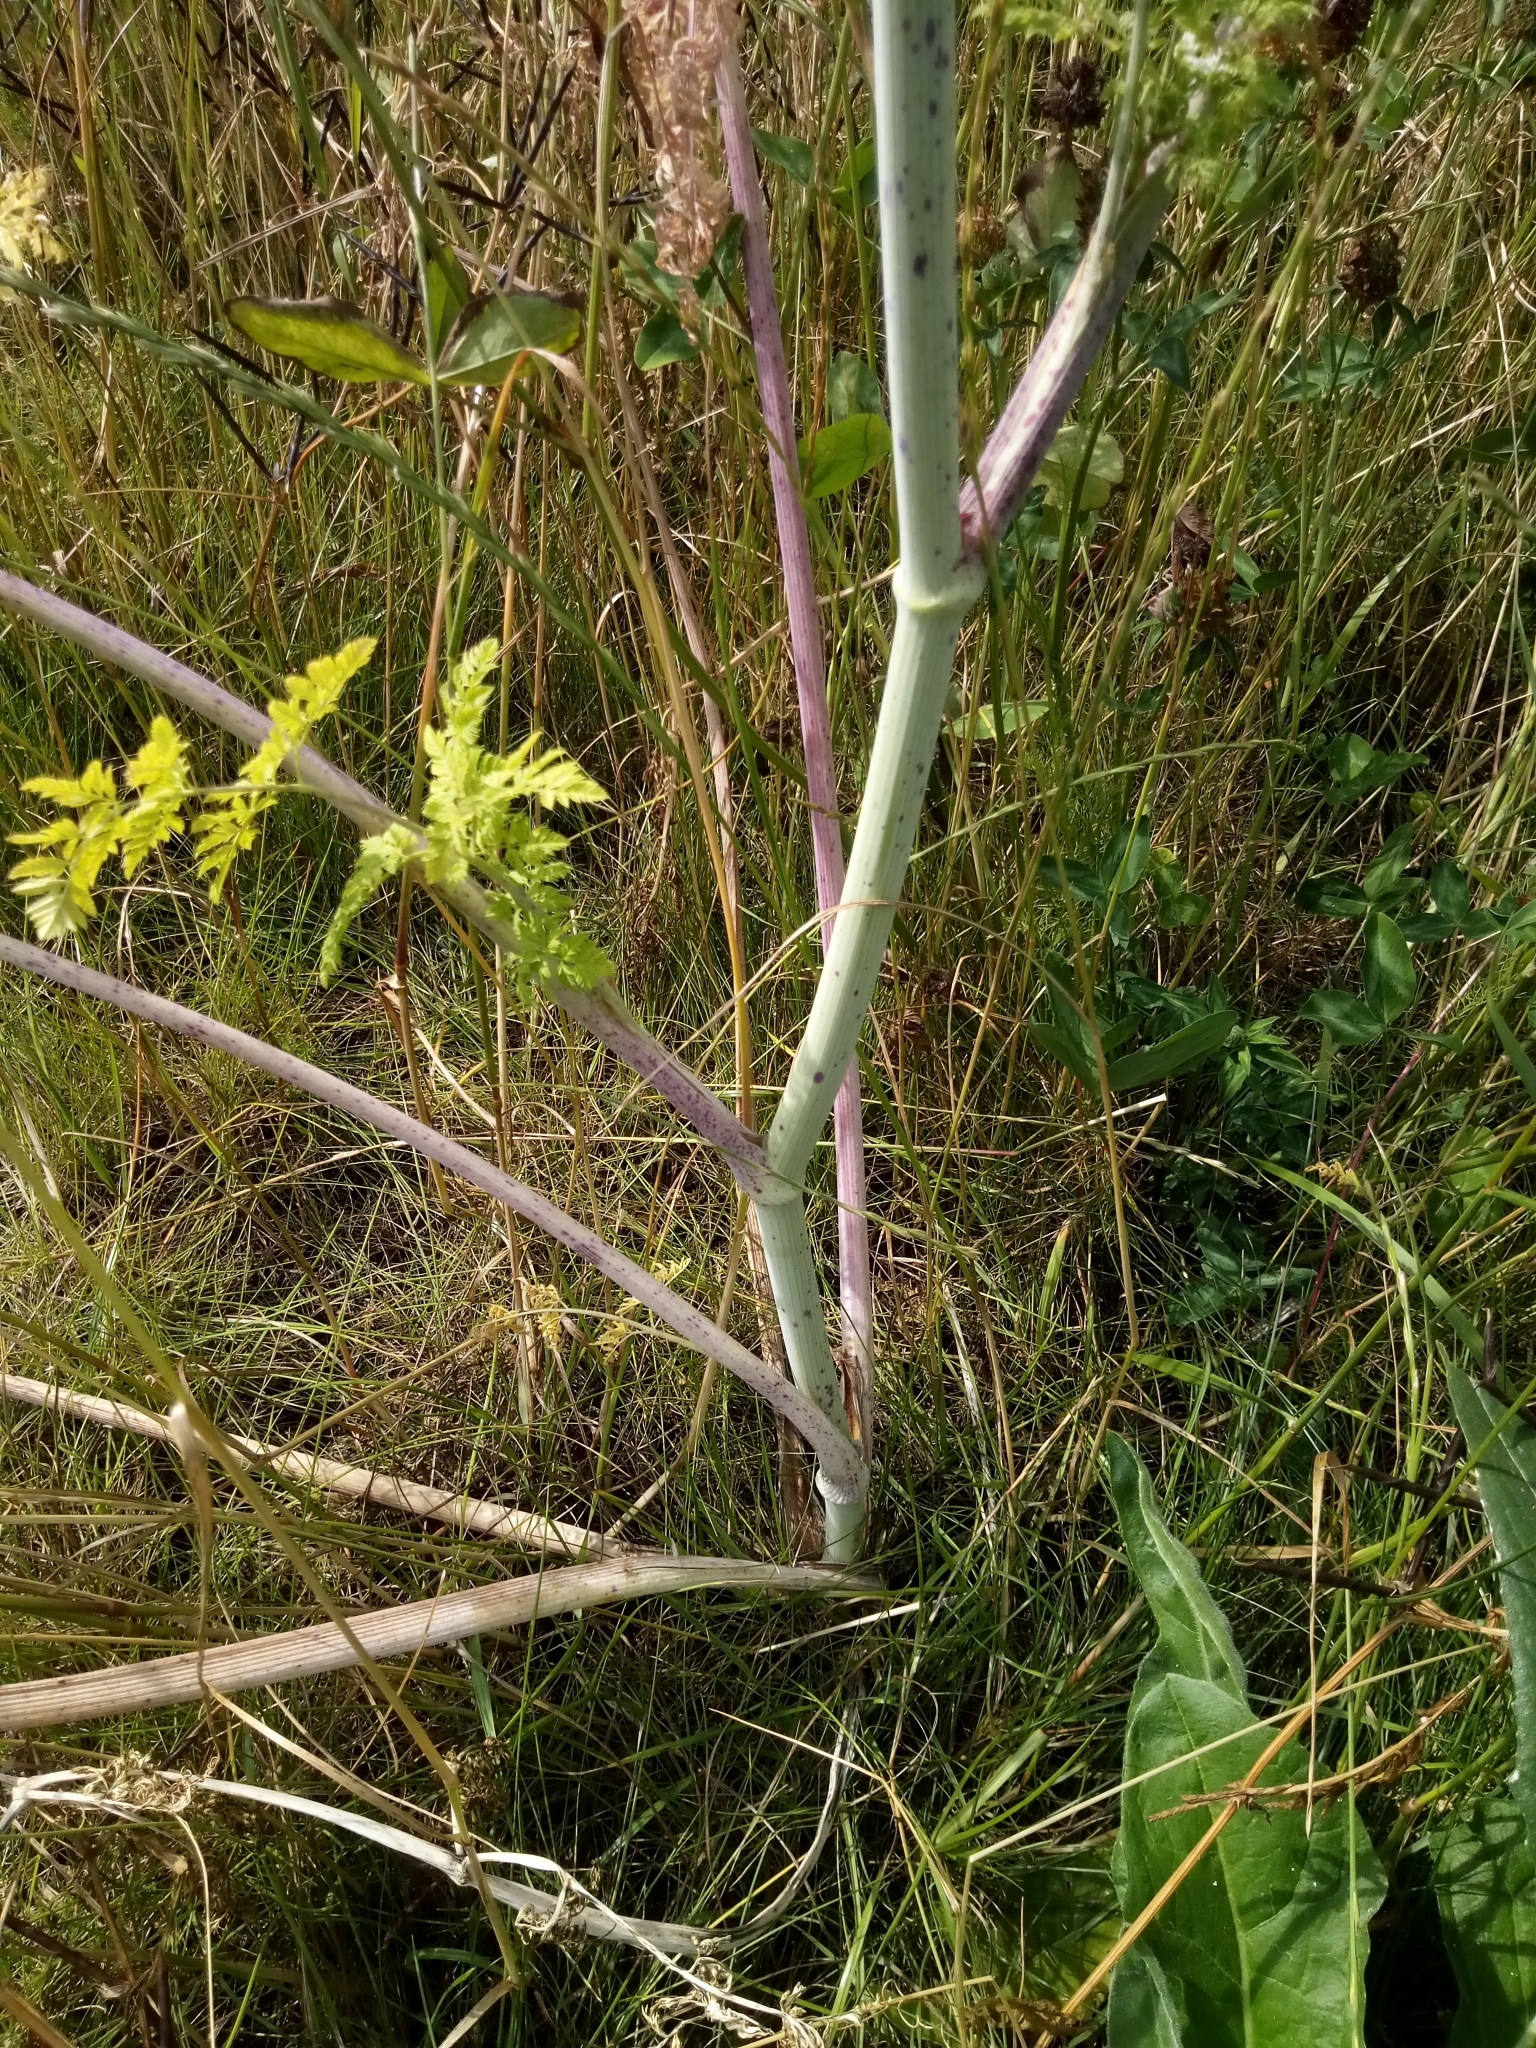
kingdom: Plantae
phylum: Tracheophyta
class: Magnoliopsida
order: Apiales
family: Apiaceae
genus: Conium
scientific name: Conium maculatum
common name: Hemlock
